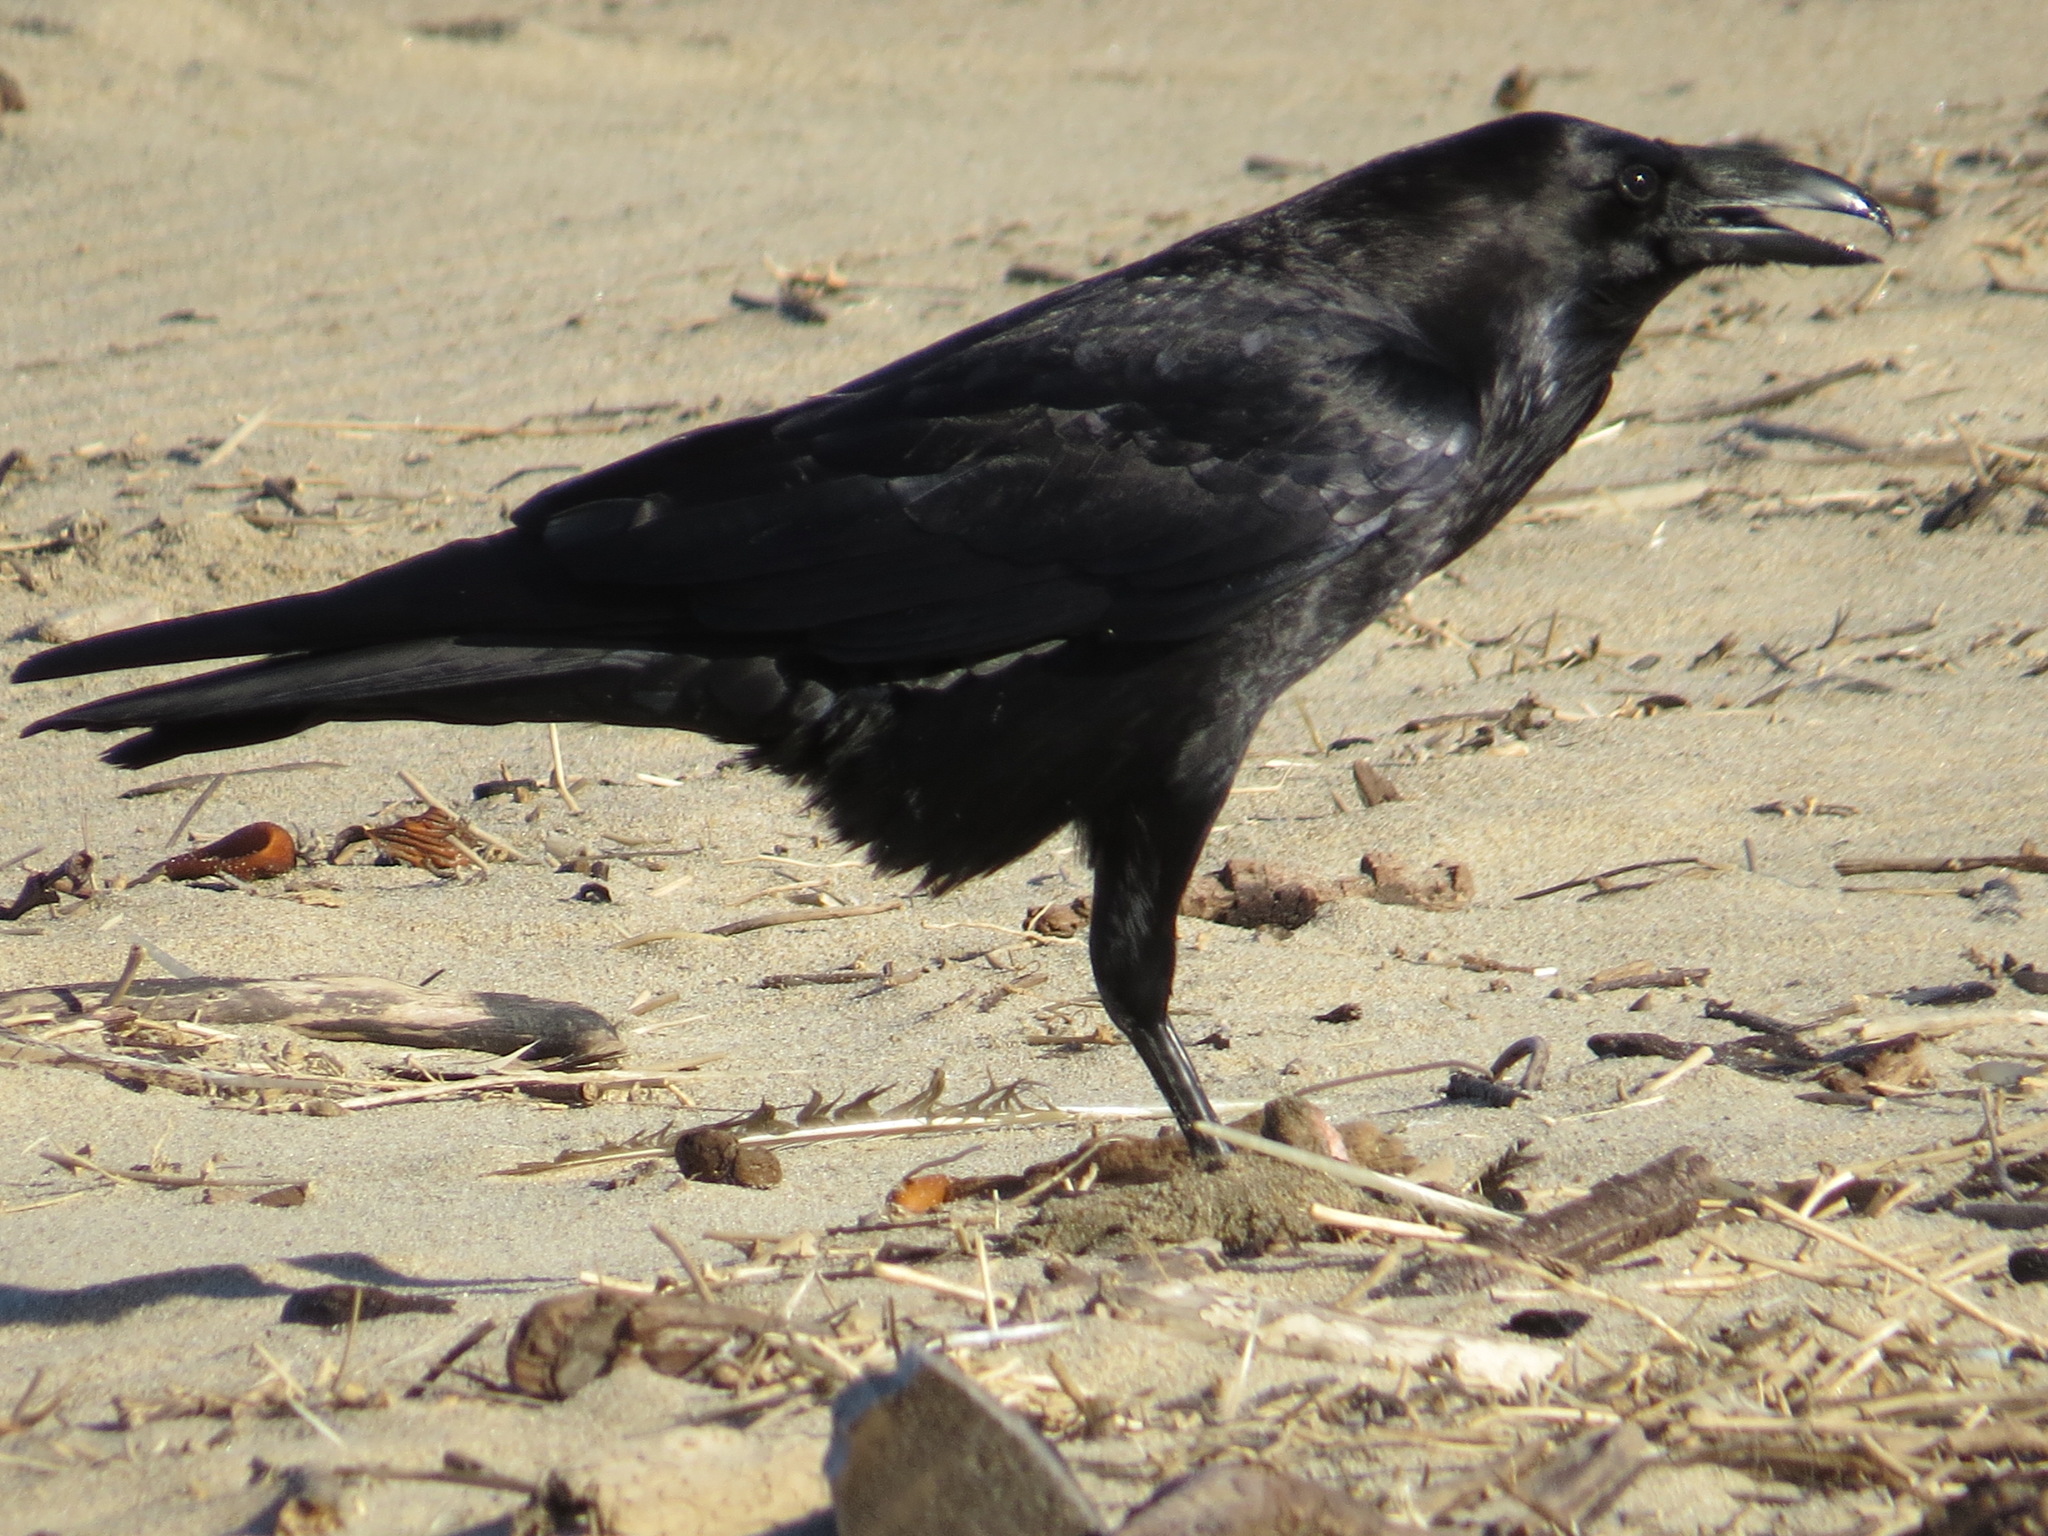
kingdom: Animalia
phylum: Chordata
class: Aves
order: Passeriformes
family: Corvidae
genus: Corvus
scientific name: Corvus corax
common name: Common raven
